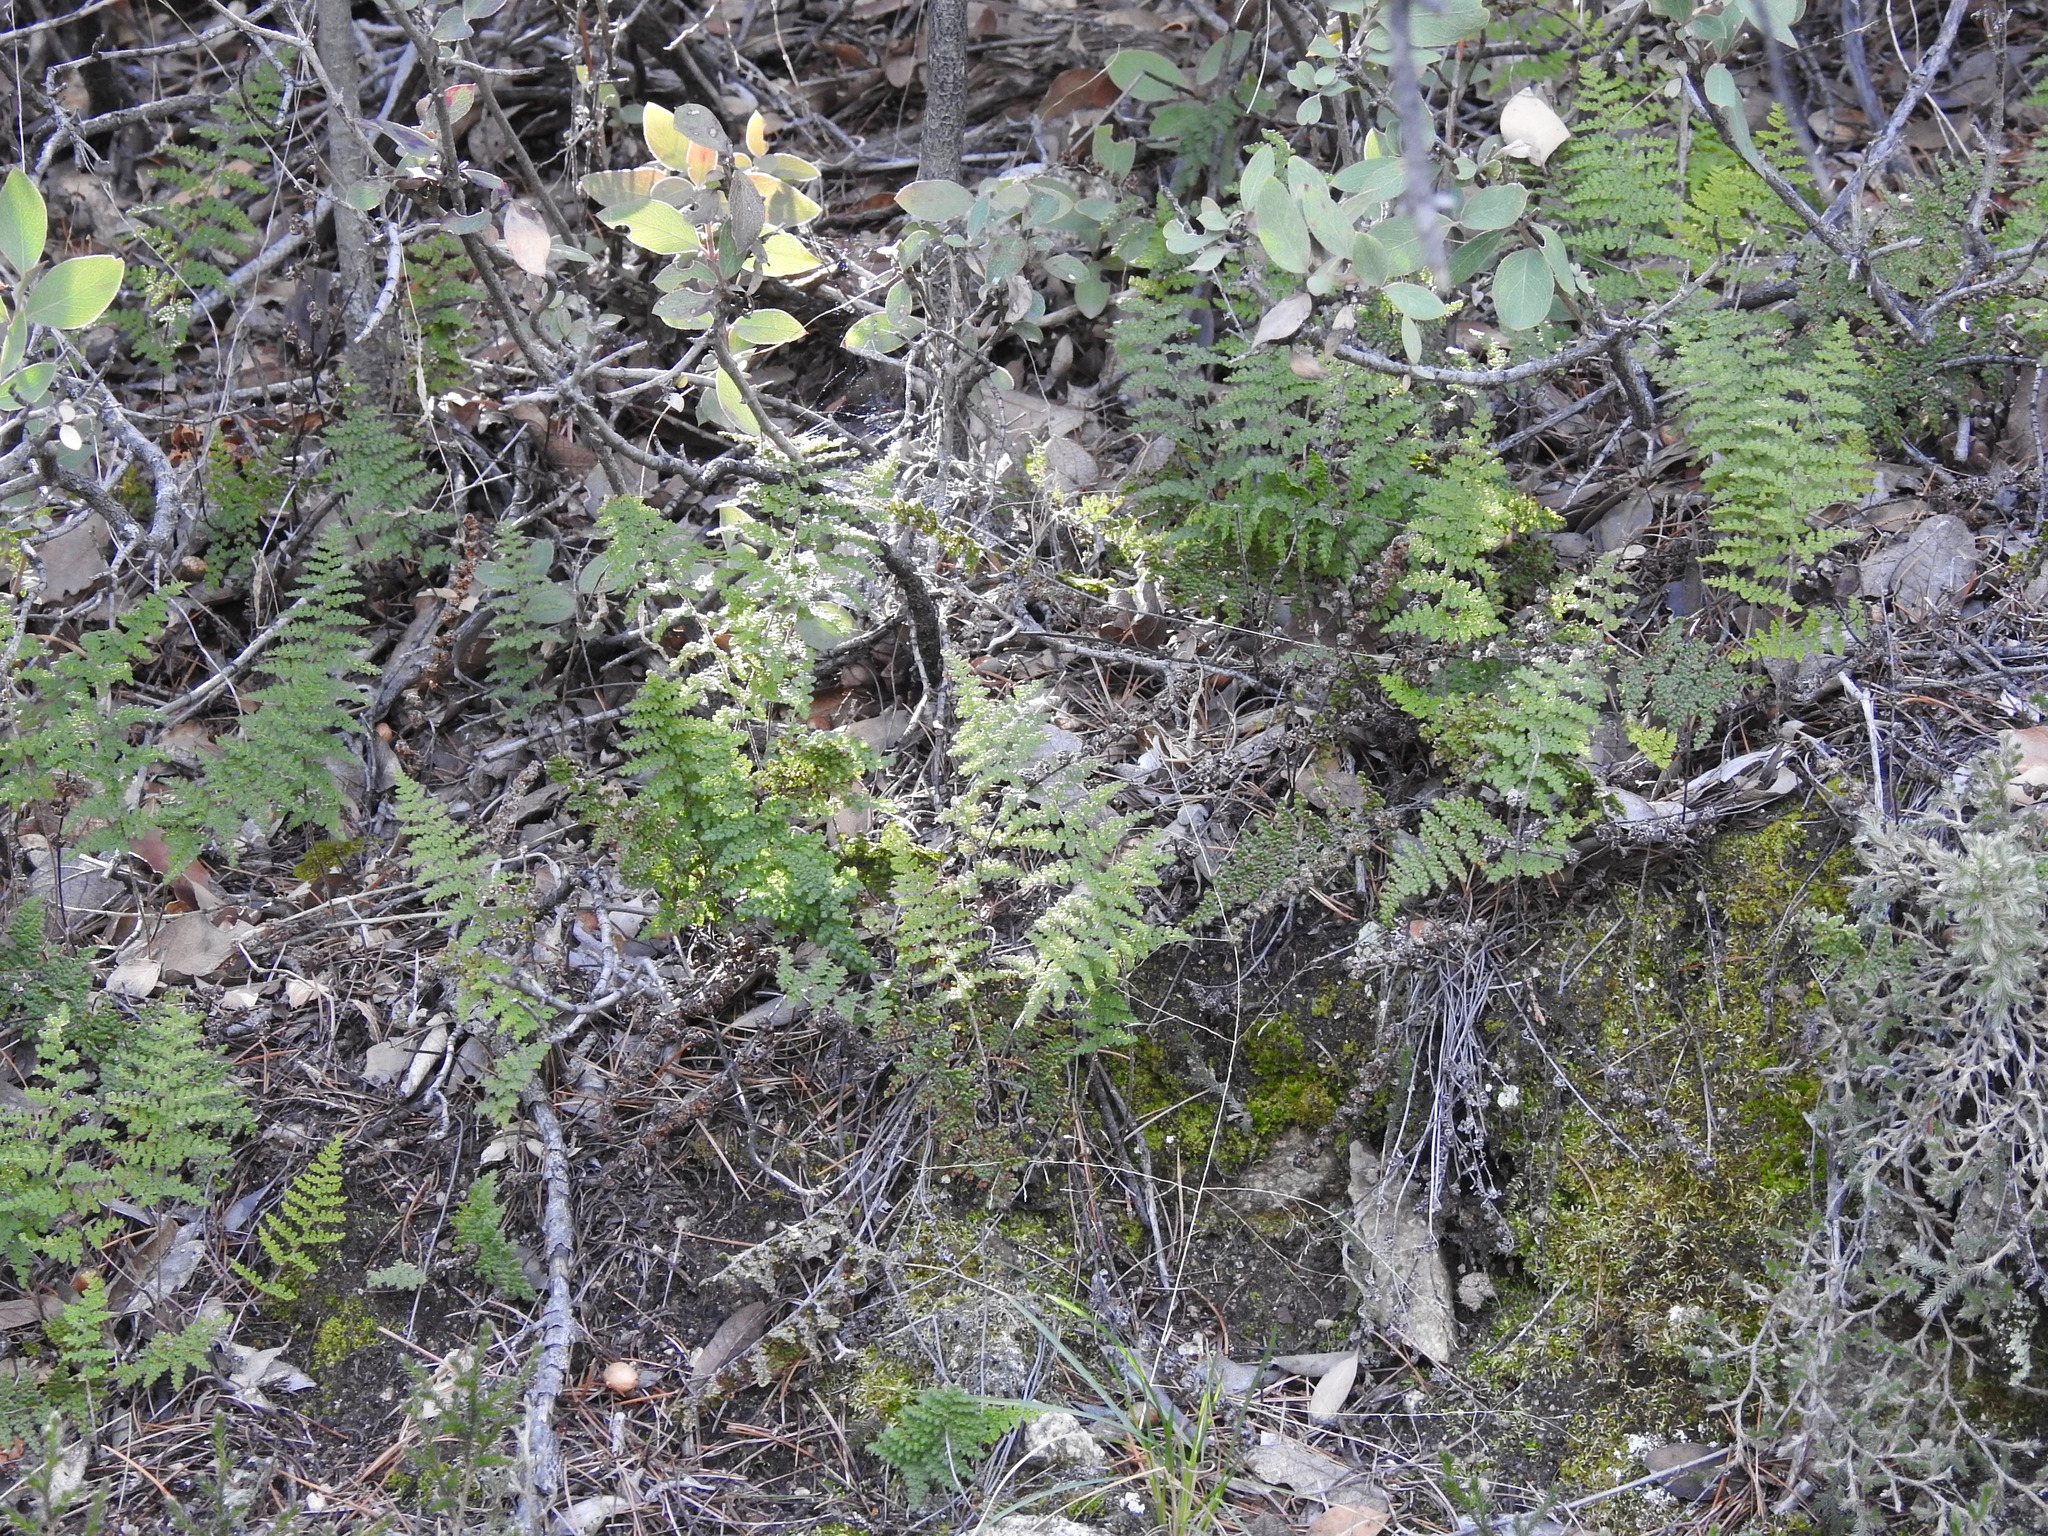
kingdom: Plantae
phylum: Tracheophyta
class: Polypodiopsida
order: Polypodiales
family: Pteridaceae
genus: Myriopteris
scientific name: Myriopteris fendleri
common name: Fendler's lip fern
